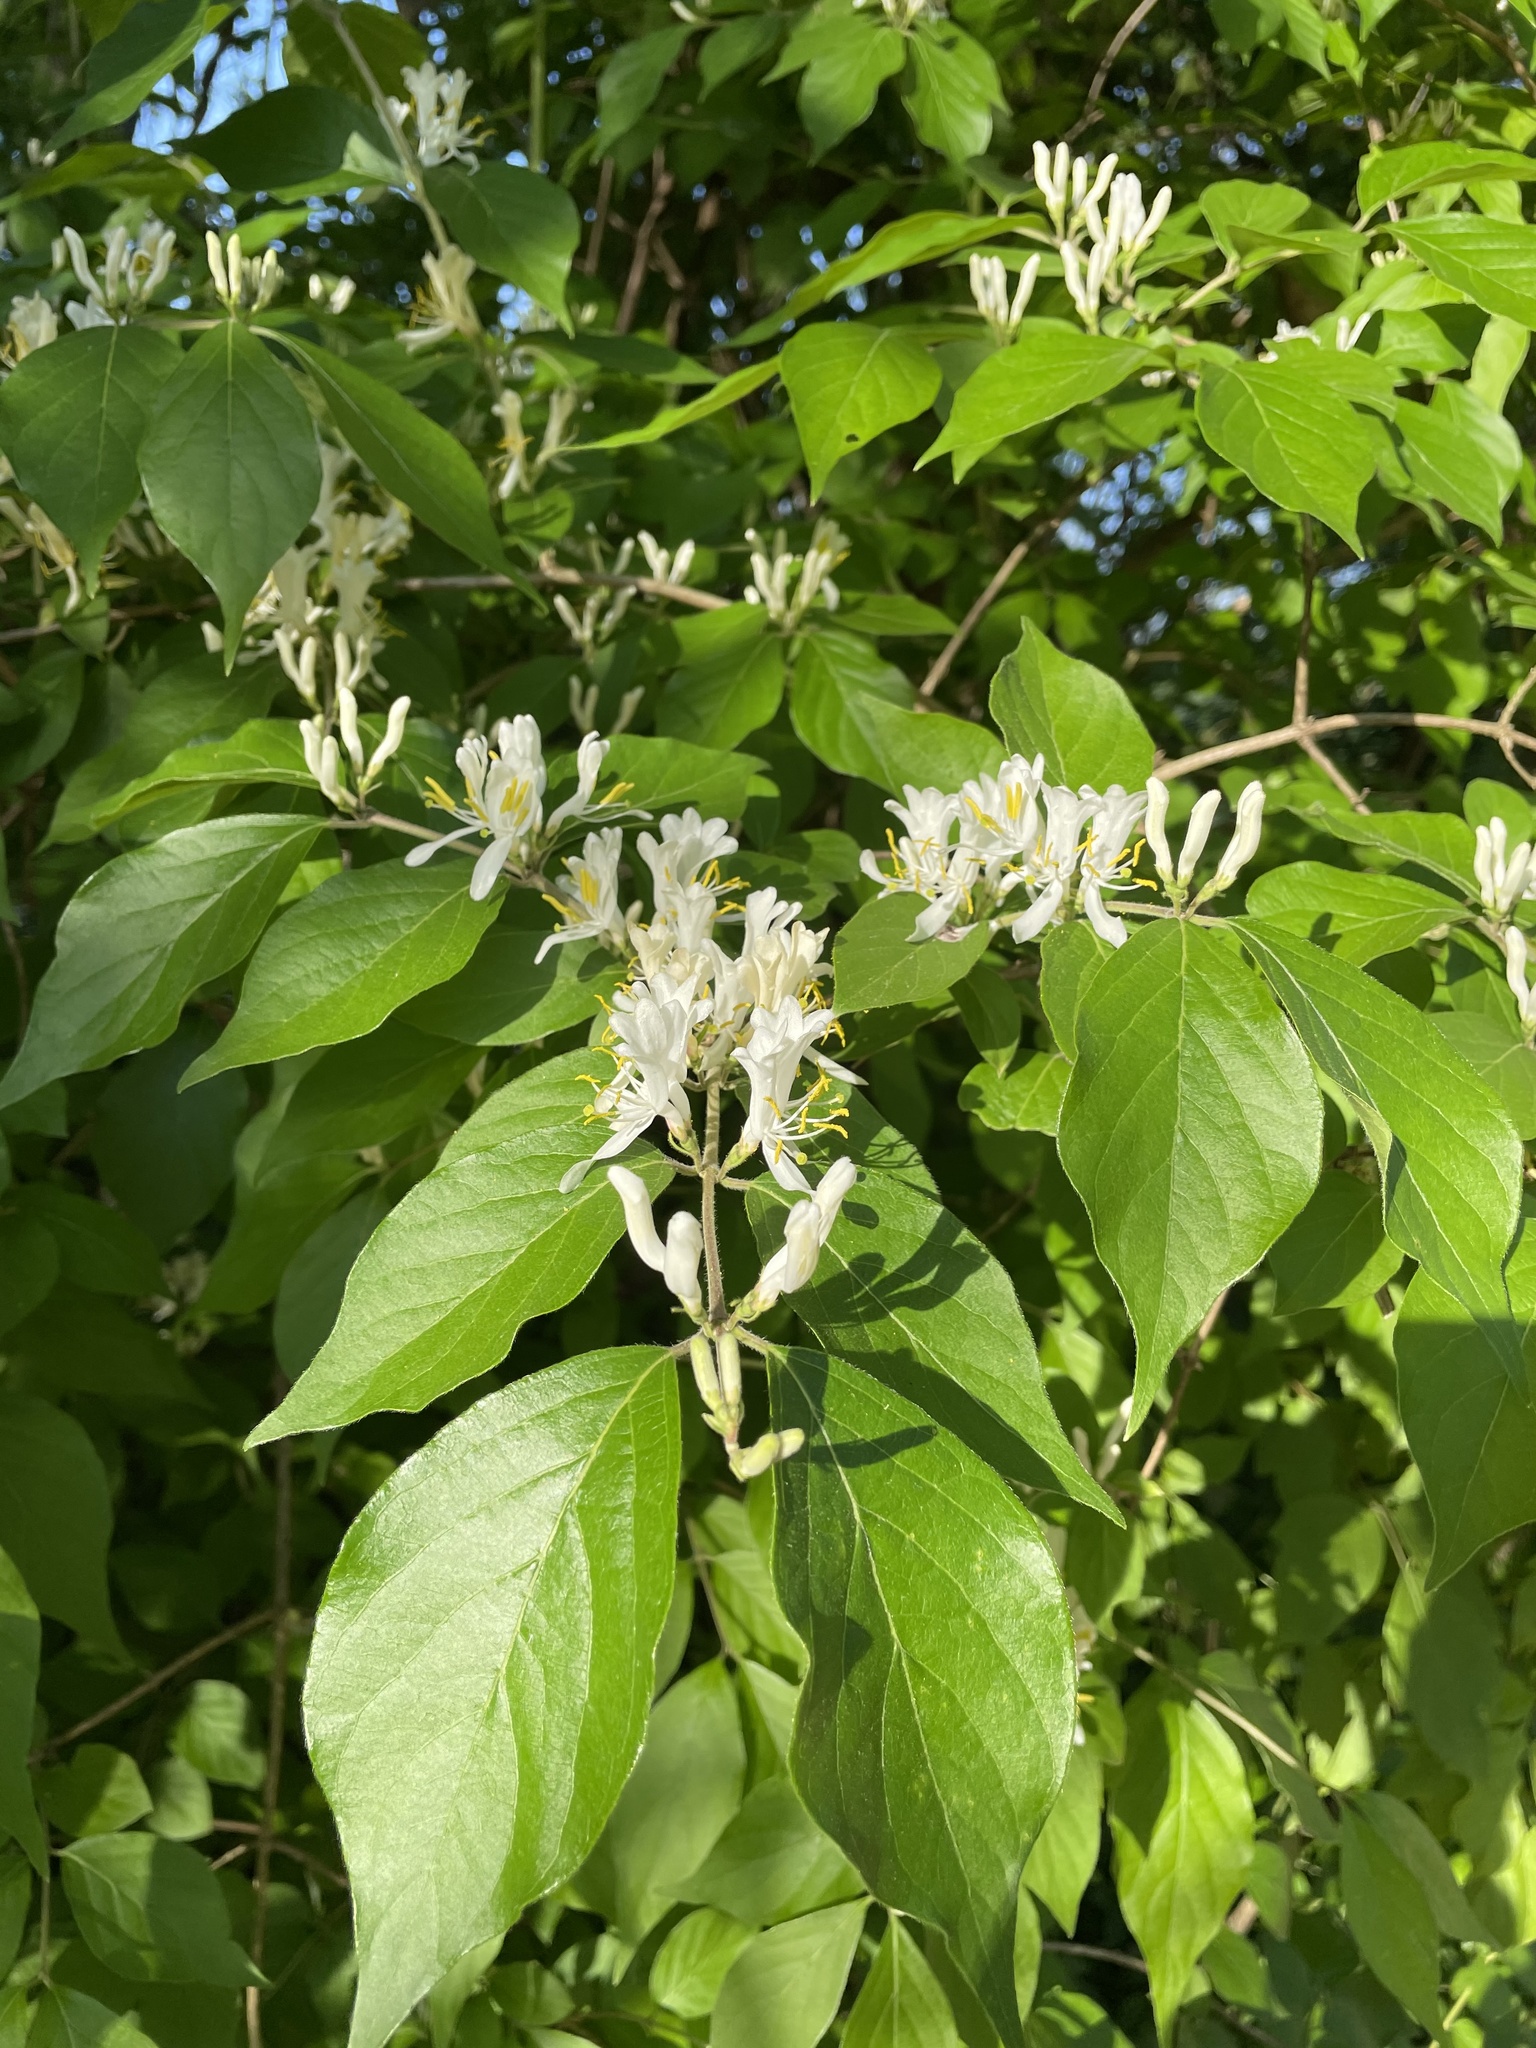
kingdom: Plantae
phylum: Tracheophyta
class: Magnoliopsida
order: Dipsacales
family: Caprifoliaceae
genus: Lonicera
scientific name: Lonicera maackii
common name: Amur honeysuckle
